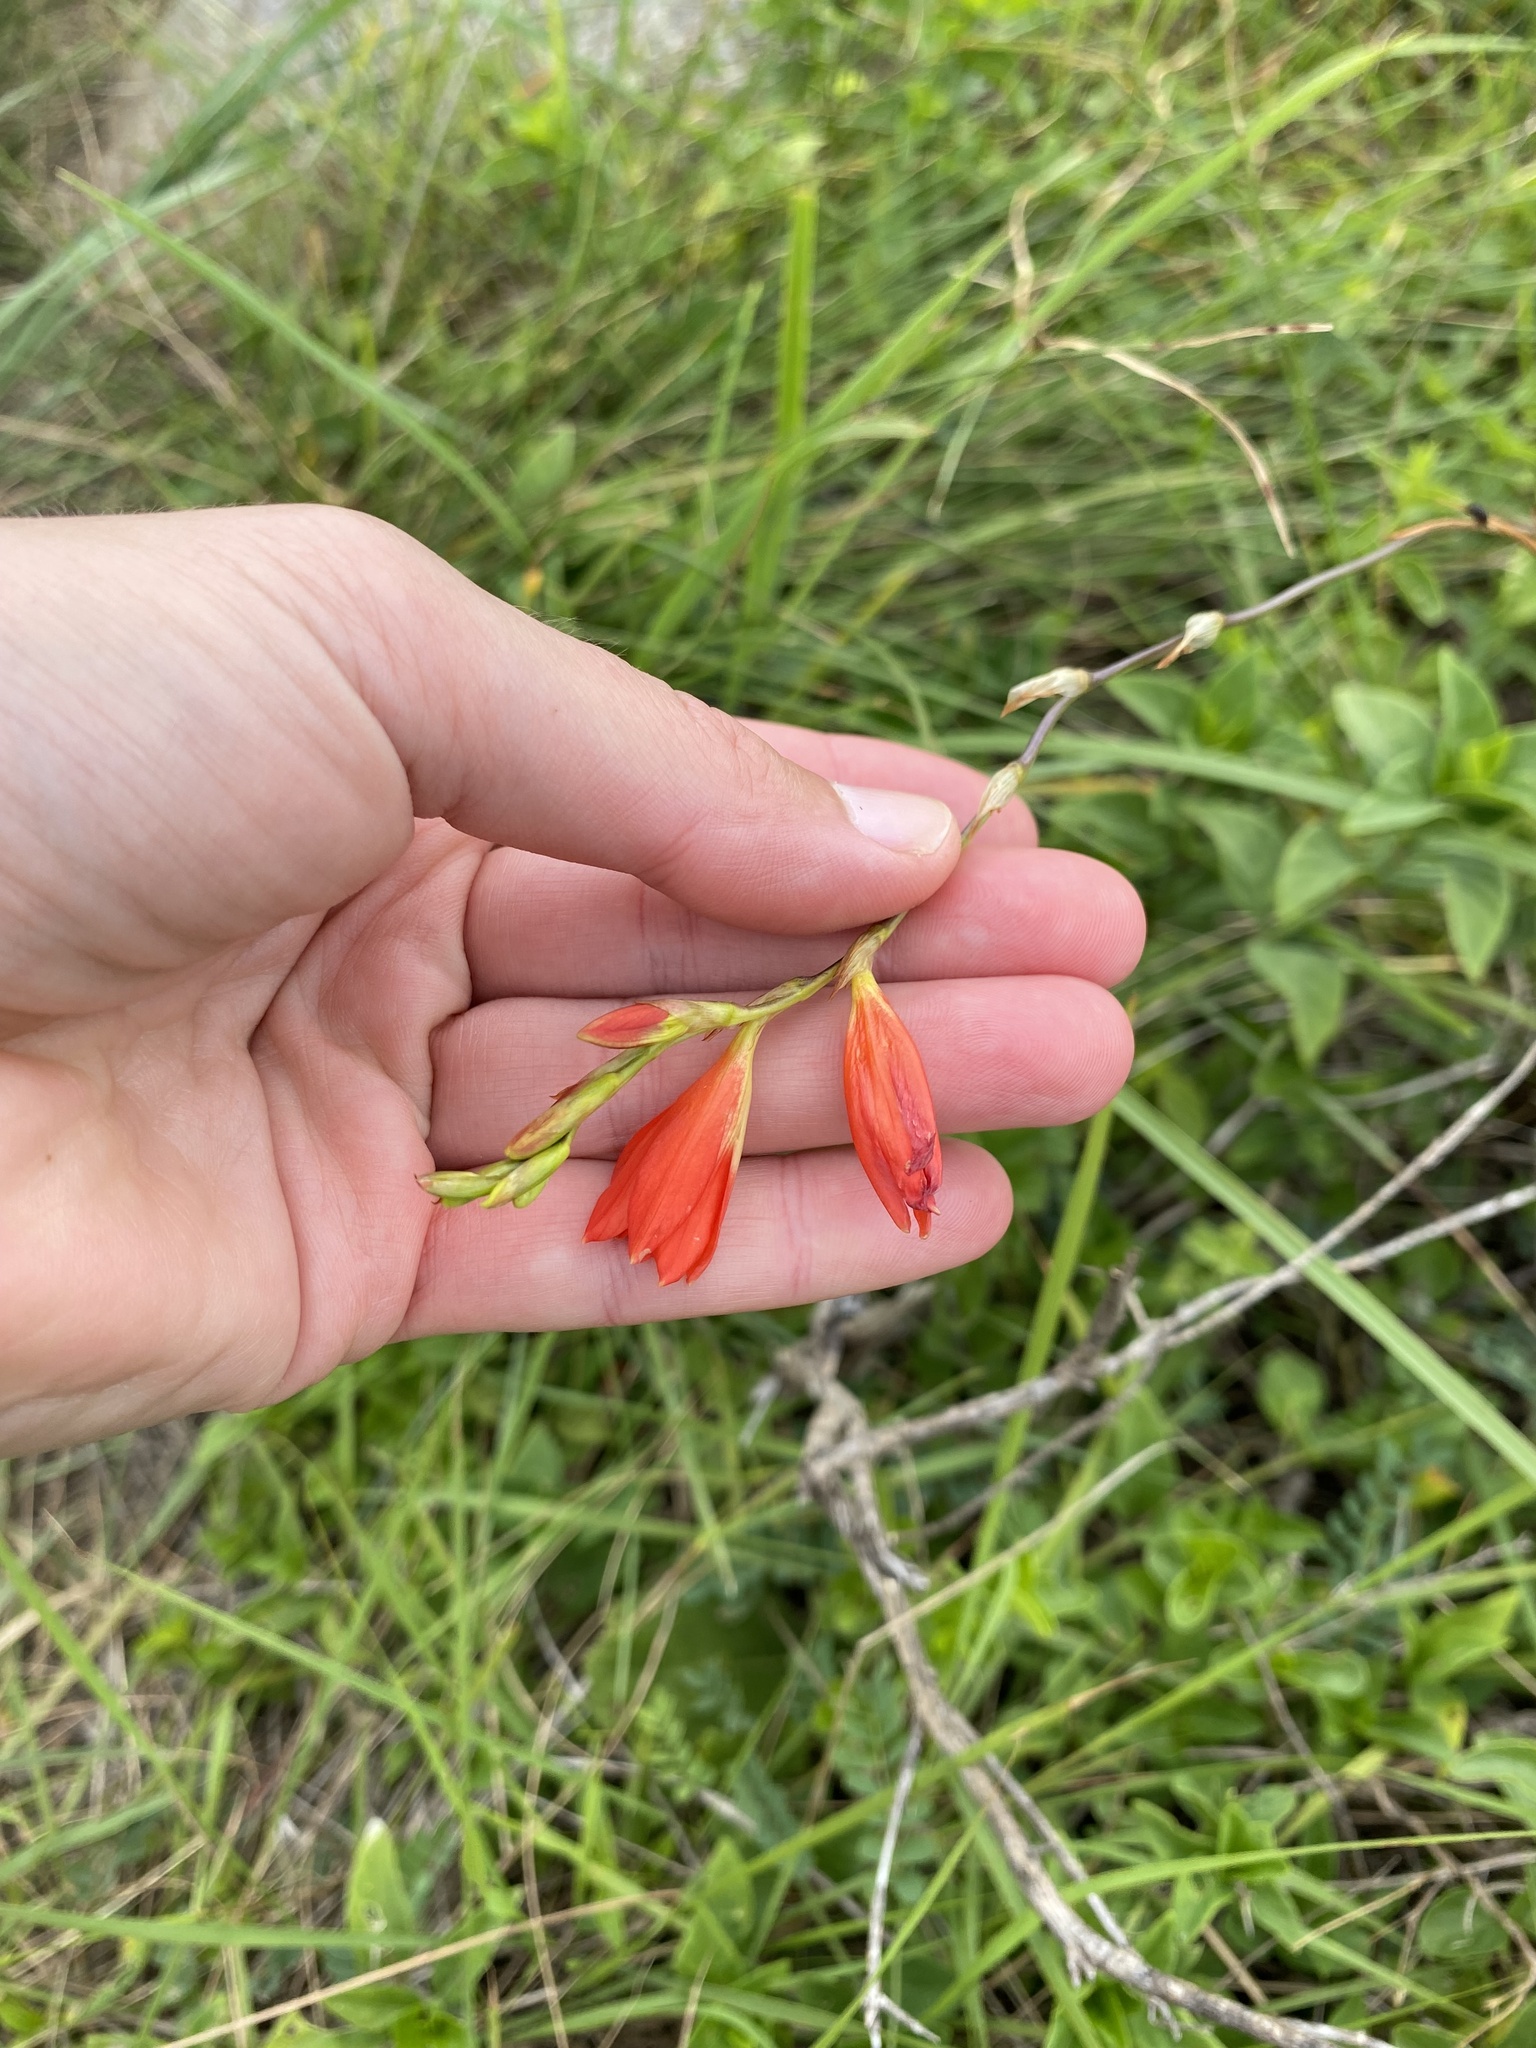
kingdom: Plantae
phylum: Tracheophyta
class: Liliopsida
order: Asparagales
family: Iridaceae
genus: Tritonia
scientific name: Tritonia disticha
